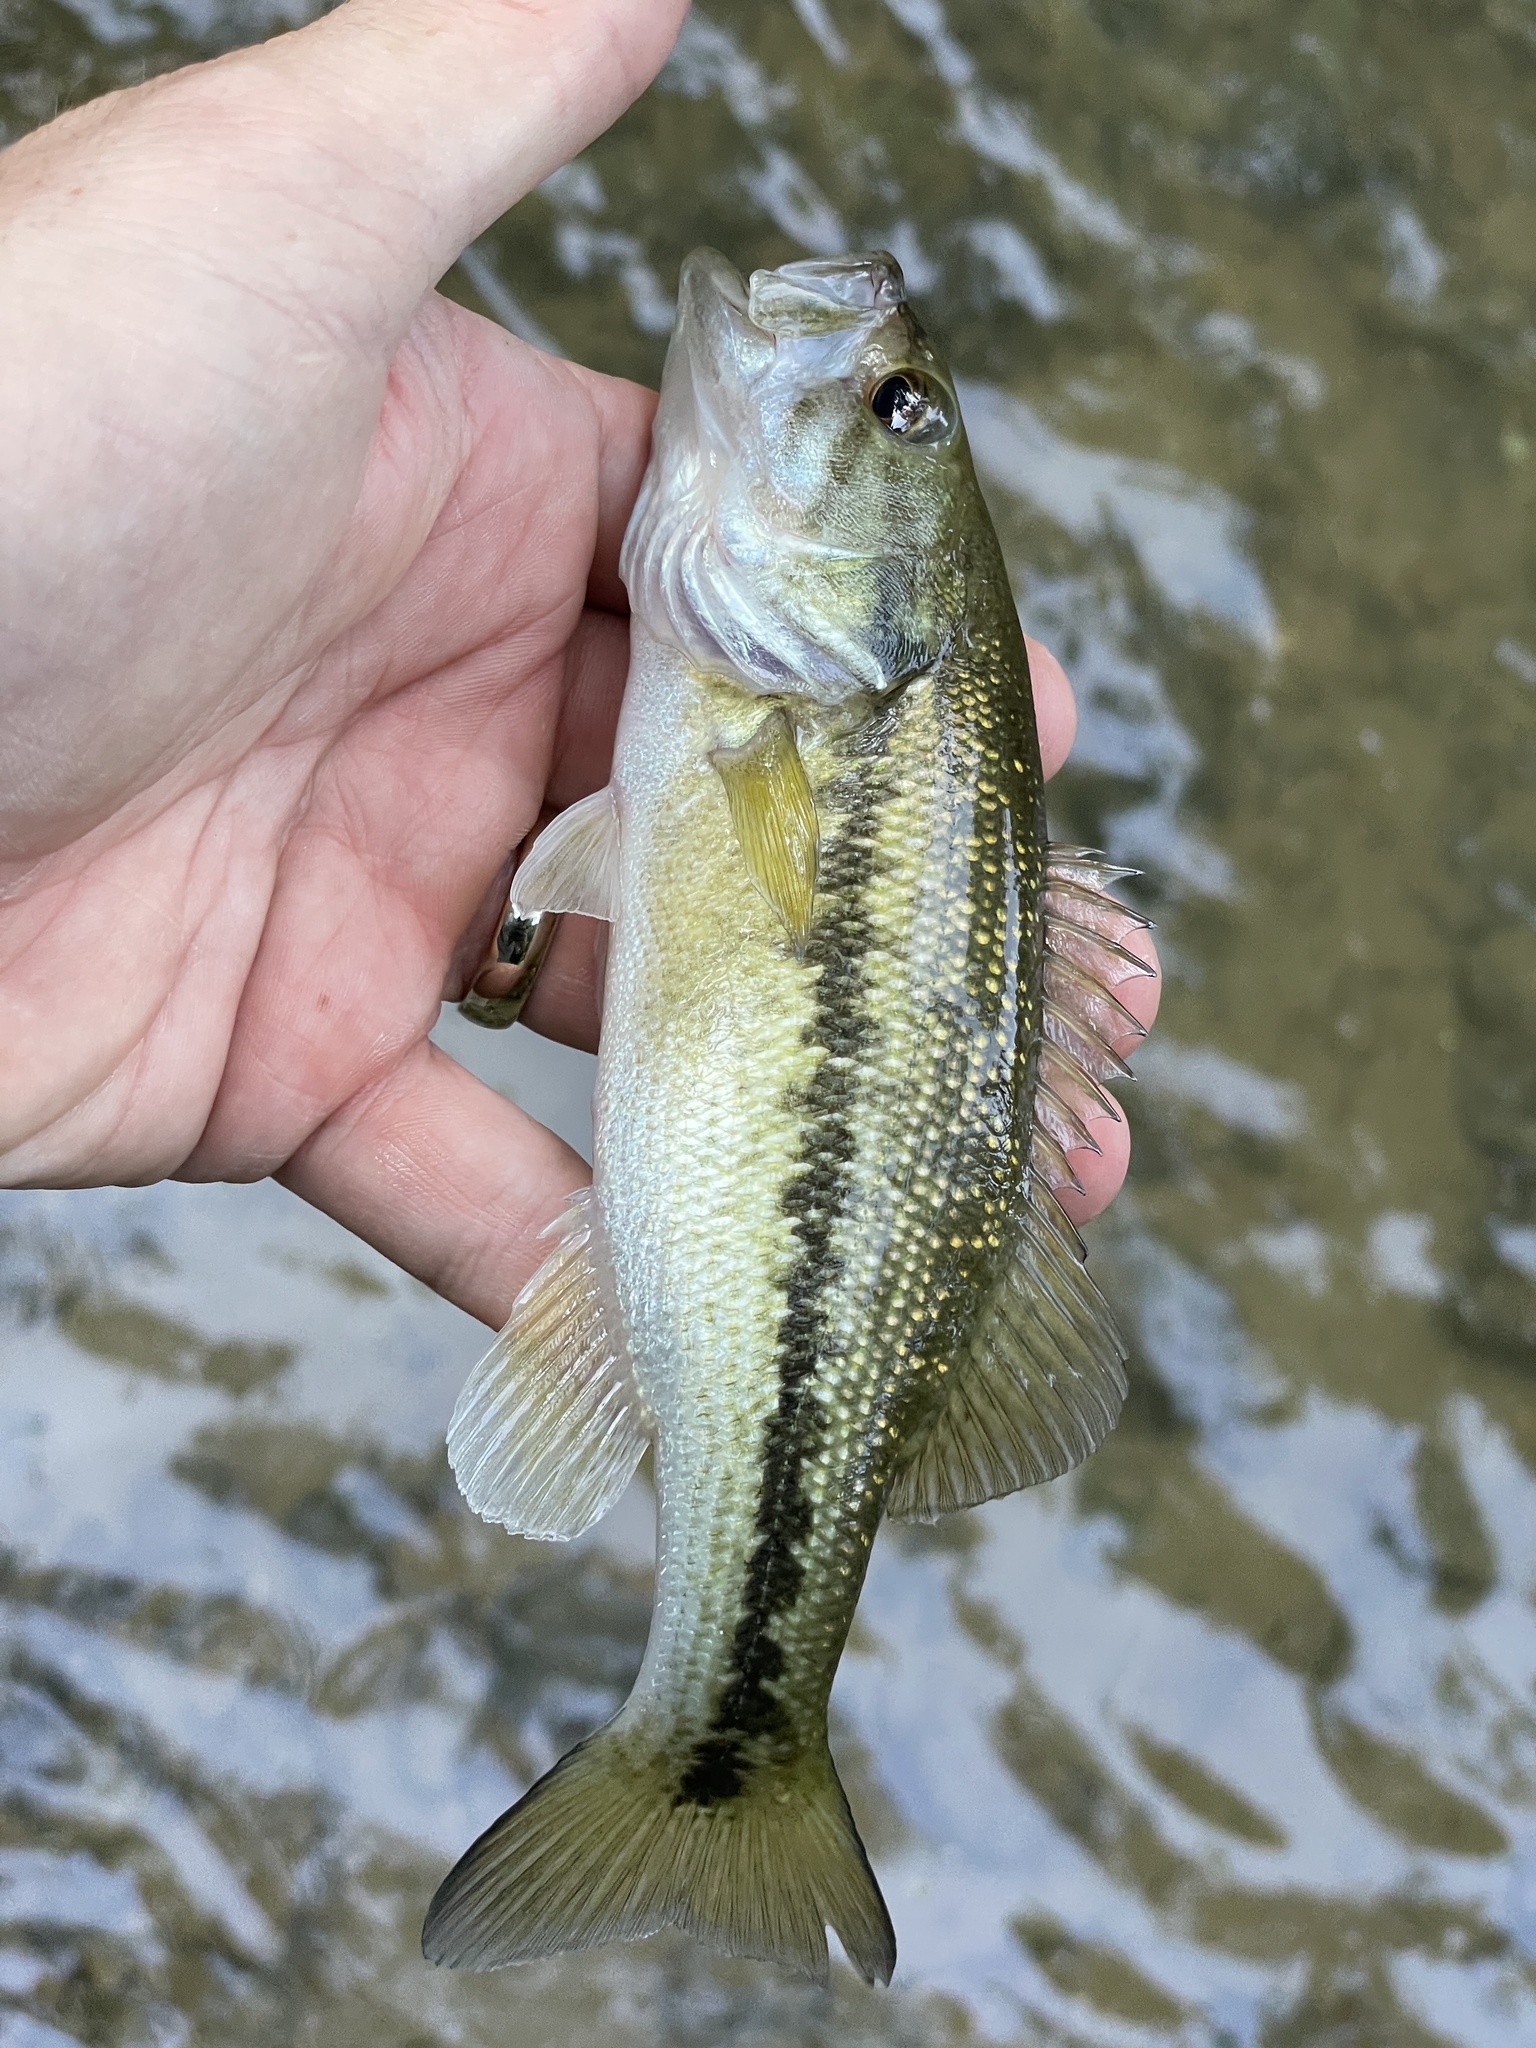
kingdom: Animalia
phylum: Chordata
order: Perciformes
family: Centrarchidae
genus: Micropterus
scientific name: Micropterus punctulatus
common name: Spotted bass
